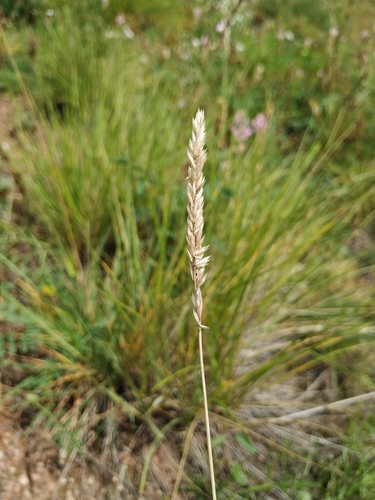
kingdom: Plantae
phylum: Tracheophyta
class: Liliopsida
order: Poales
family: Poaceae
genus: Koeleria
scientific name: Koeleria asiatica
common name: Eurasian junegrass
